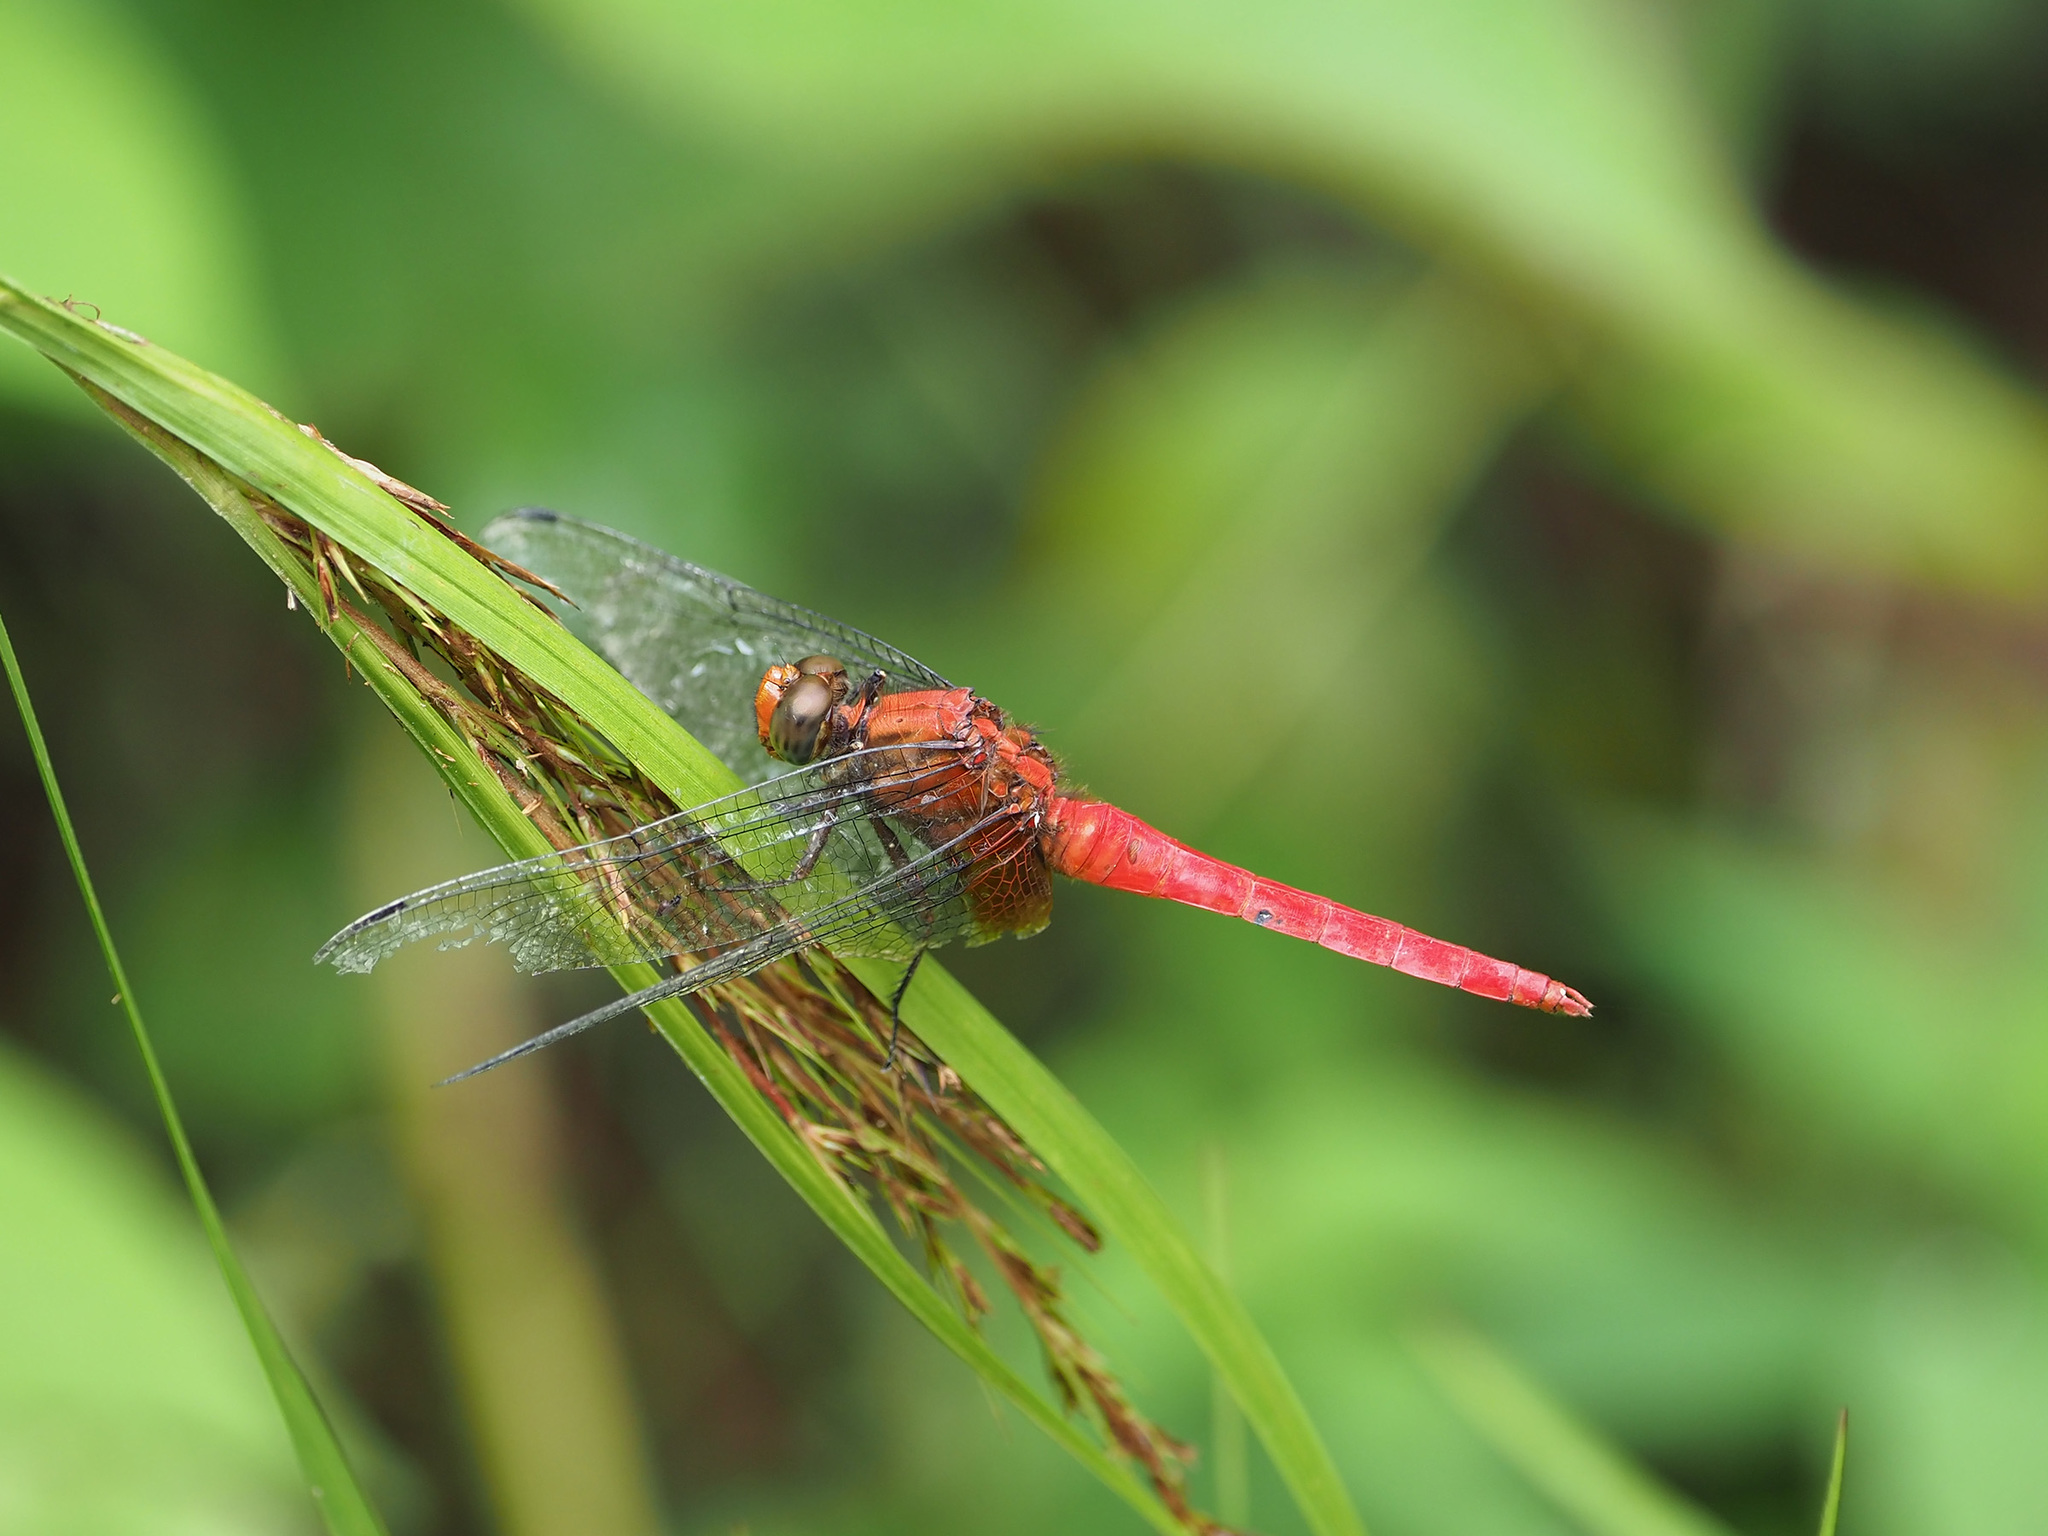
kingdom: Animalia
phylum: Arthropoda
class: Insecta
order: Odonata
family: Libellulidae
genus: Orthetrum
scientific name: Orthetrum testaceum
